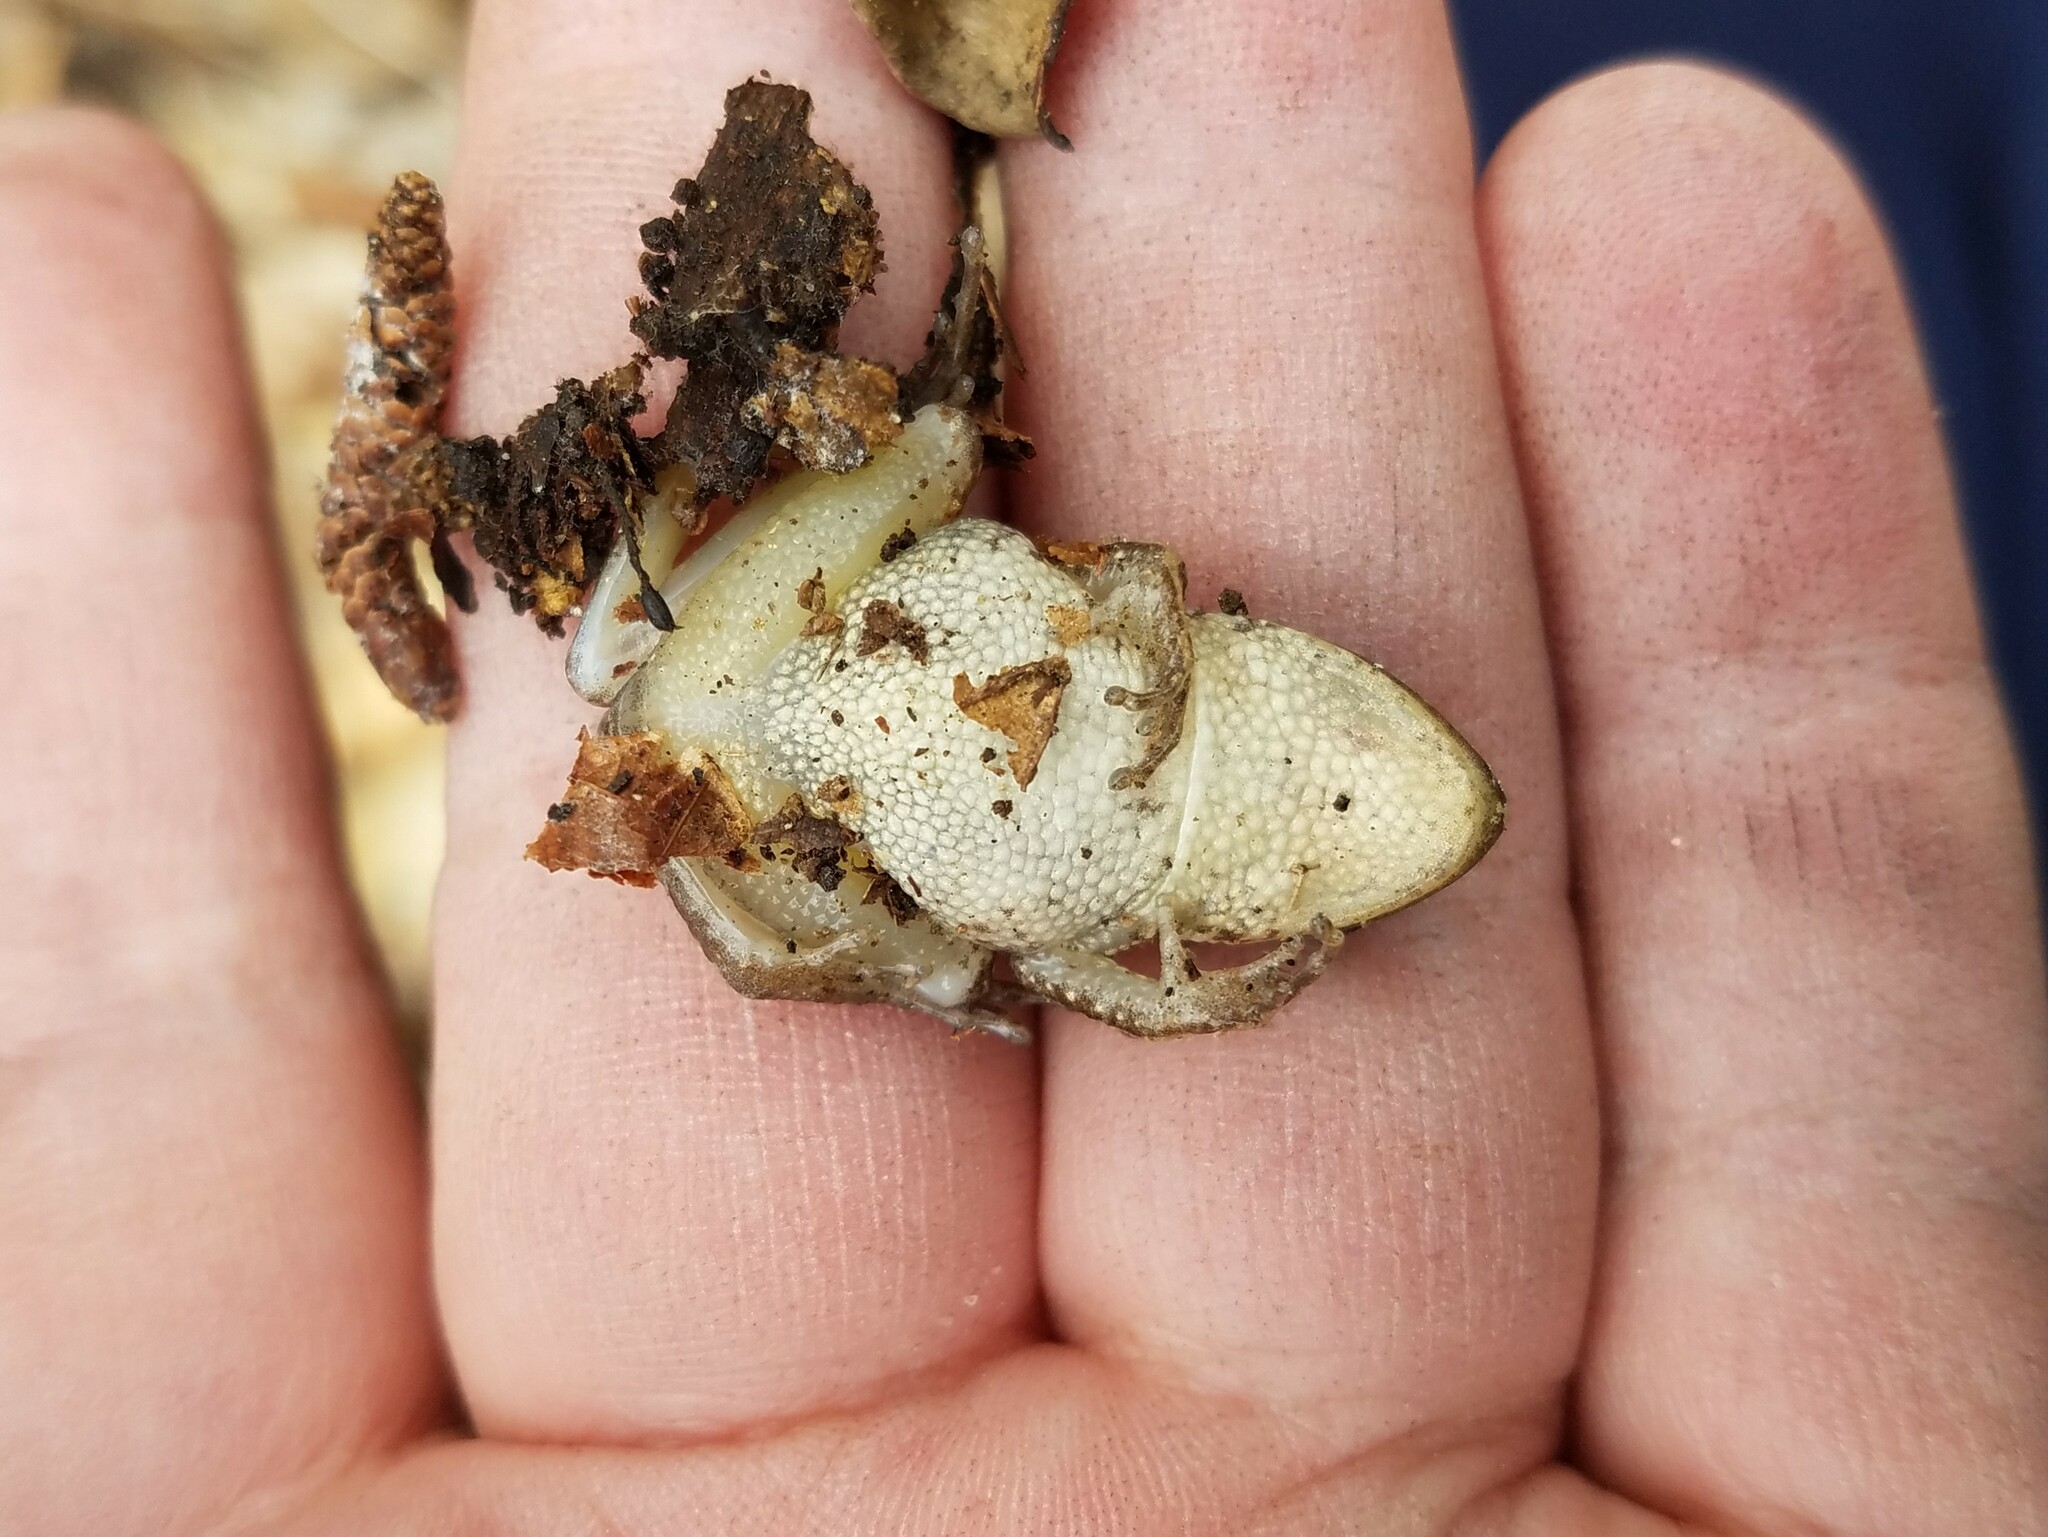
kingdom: Animalia
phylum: Chordata
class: Amphibia
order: Anura
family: Hylidae
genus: Pseudacris
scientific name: Pseudacris feriarum
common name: Upland chorus frog
